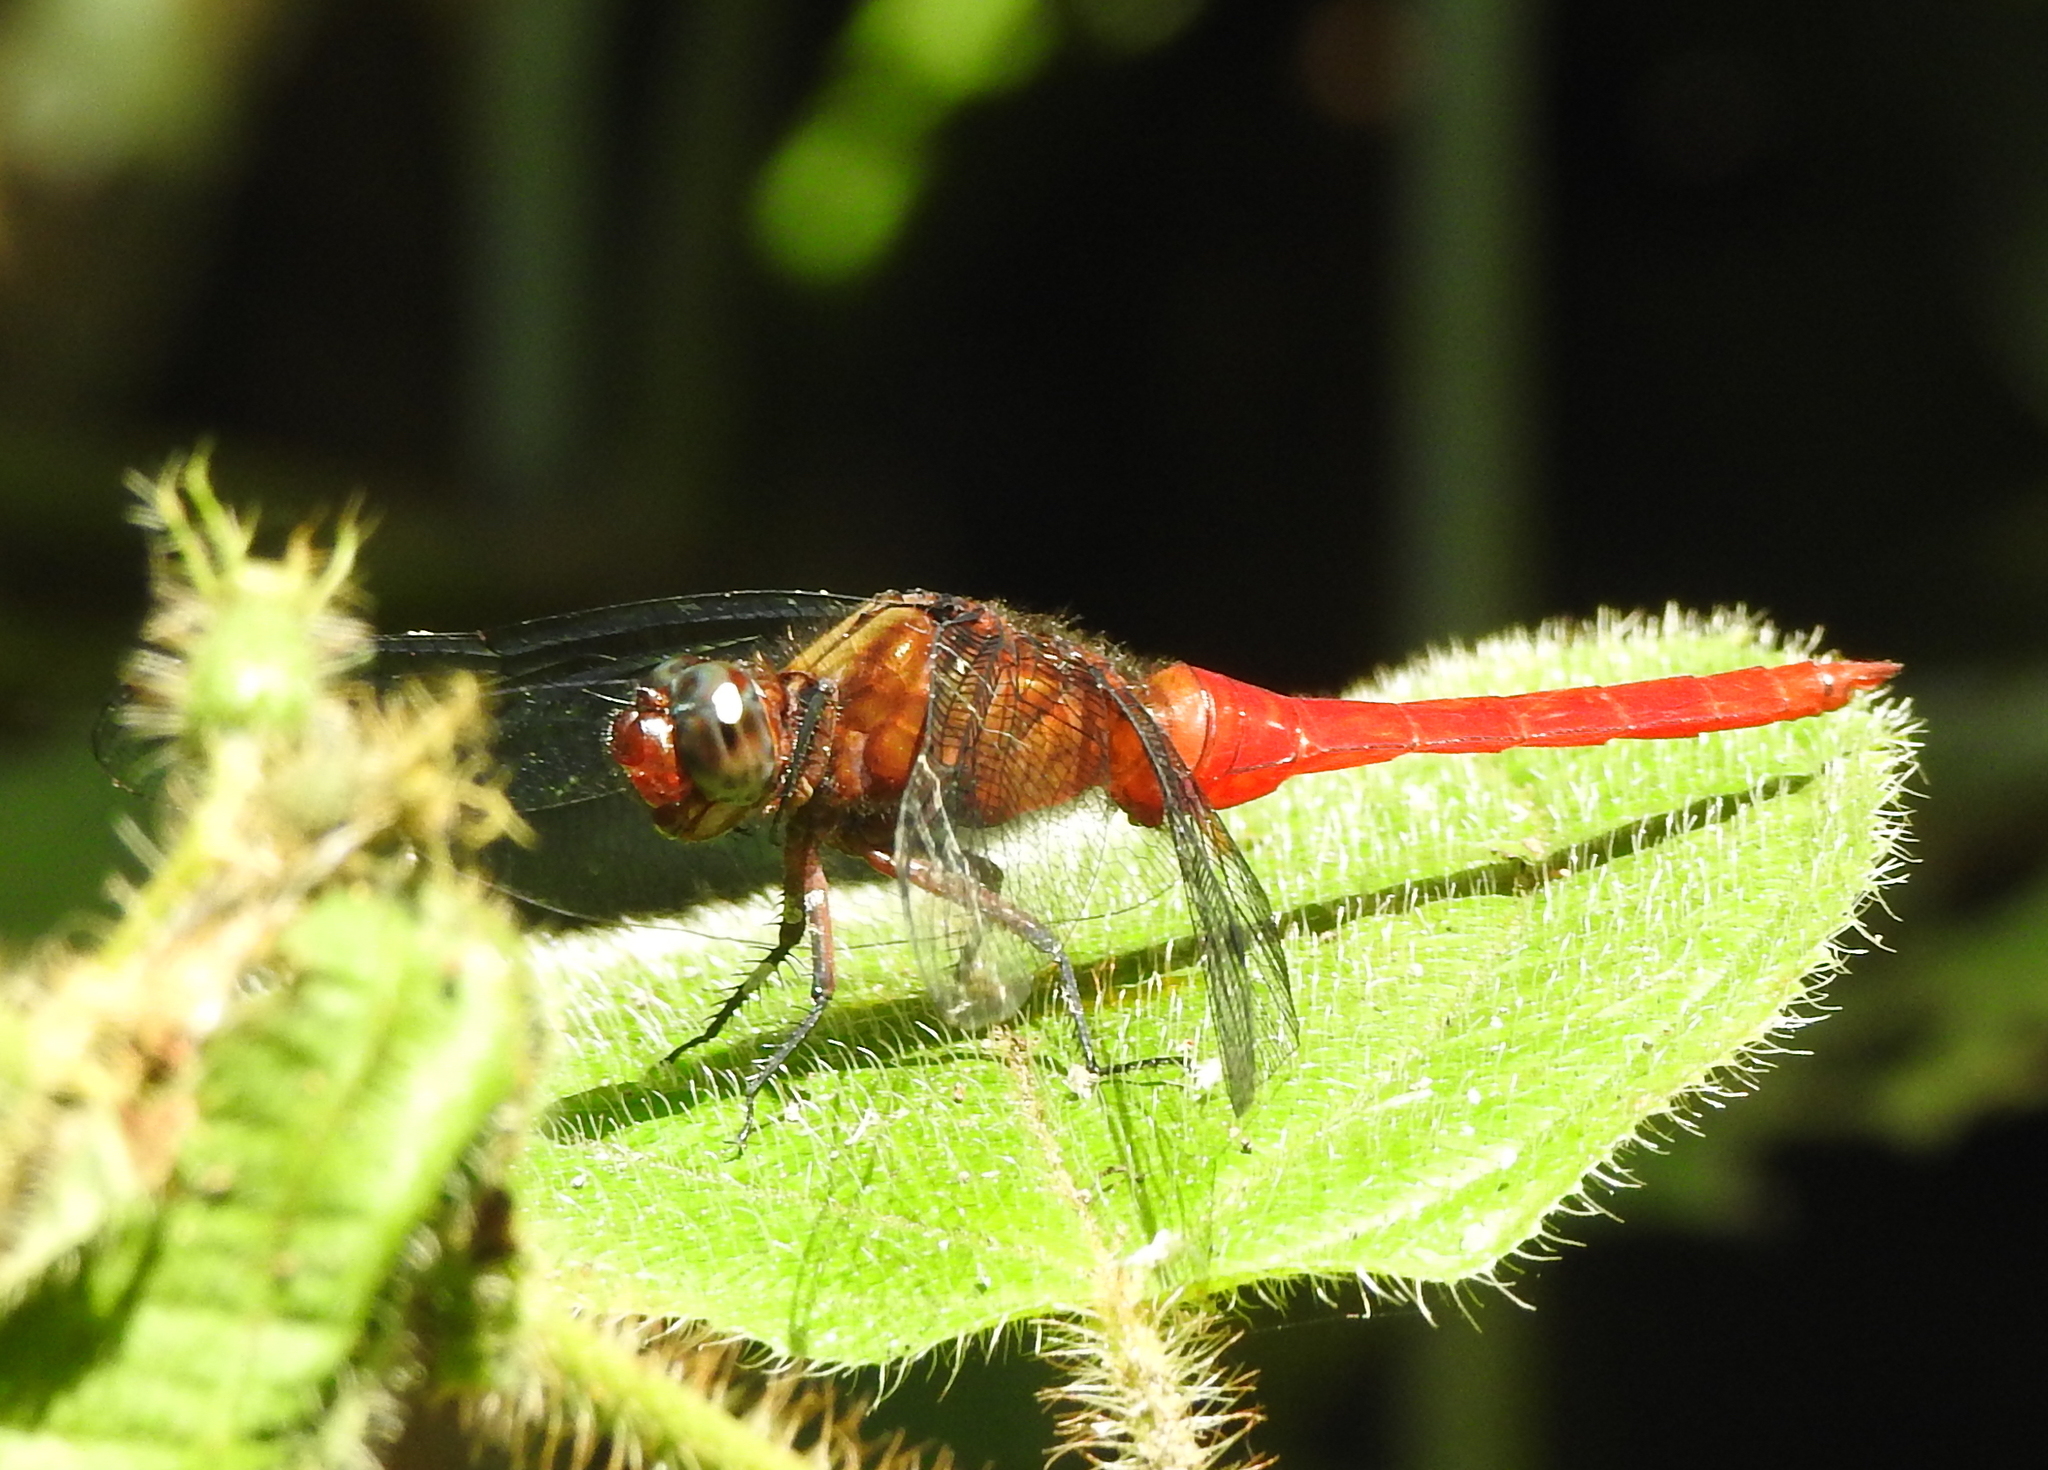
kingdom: Animalia
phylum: Arthropoda
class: Insecta
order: Odonata
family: Libellulidae
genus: Orthetrum
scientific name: Orthetrum chrysis
